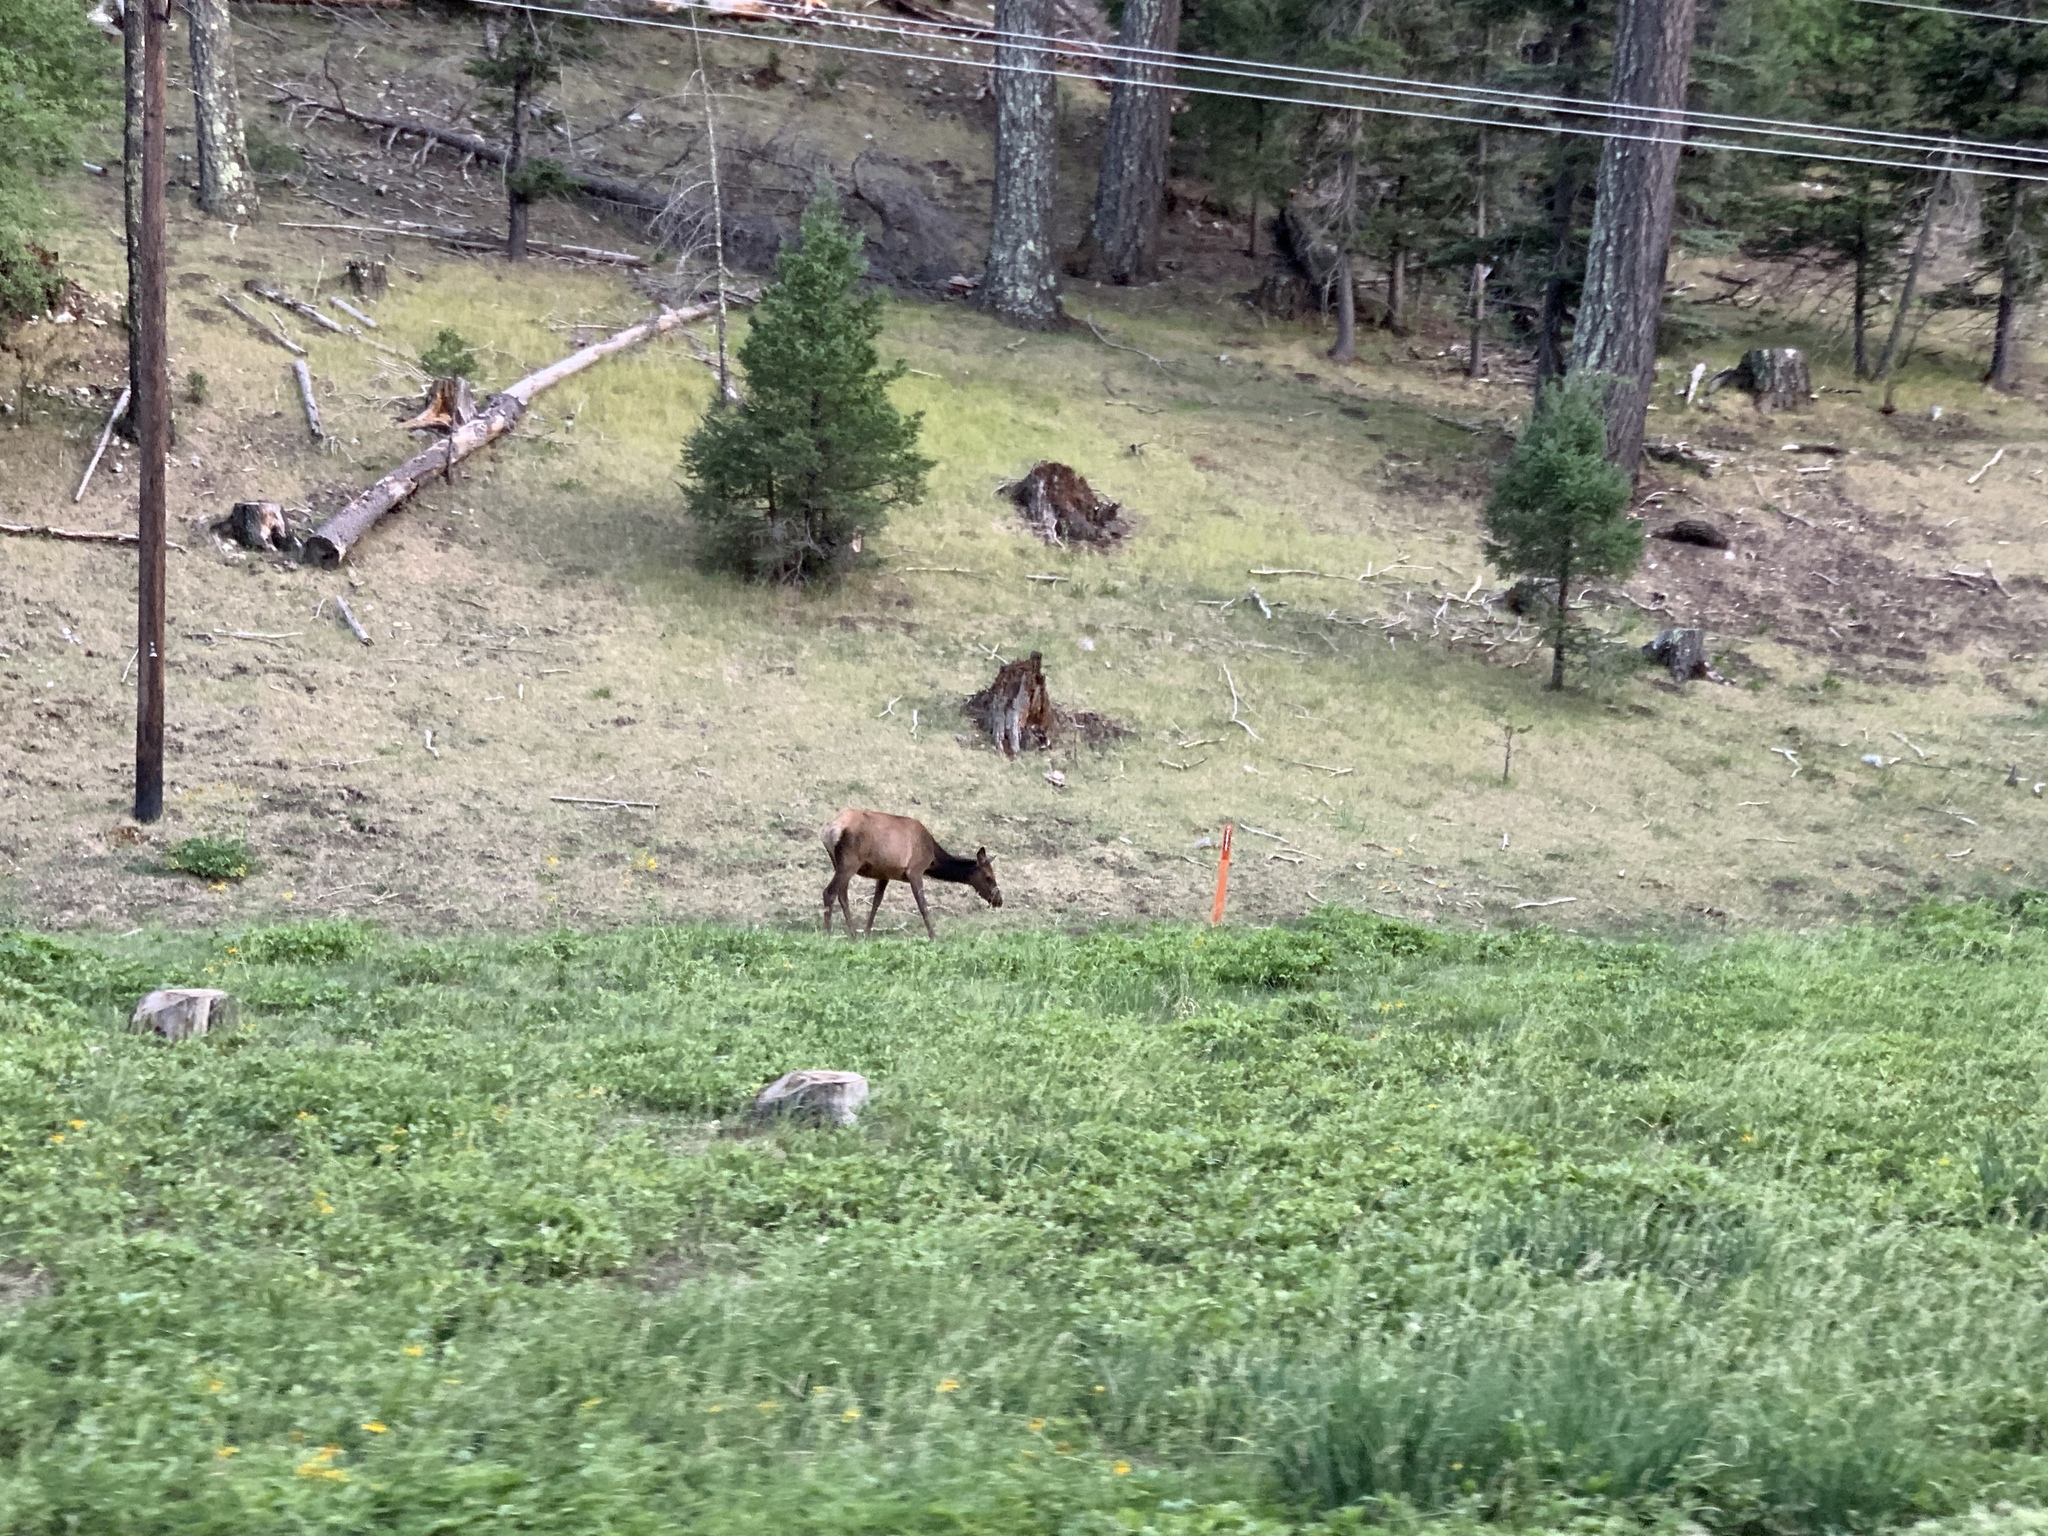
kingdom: Animalia
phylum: Chordata
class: Mammalia
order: Artiodactyla
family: Cervidae
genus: Cervus
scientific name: Cervus elaphus
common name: Red deer
